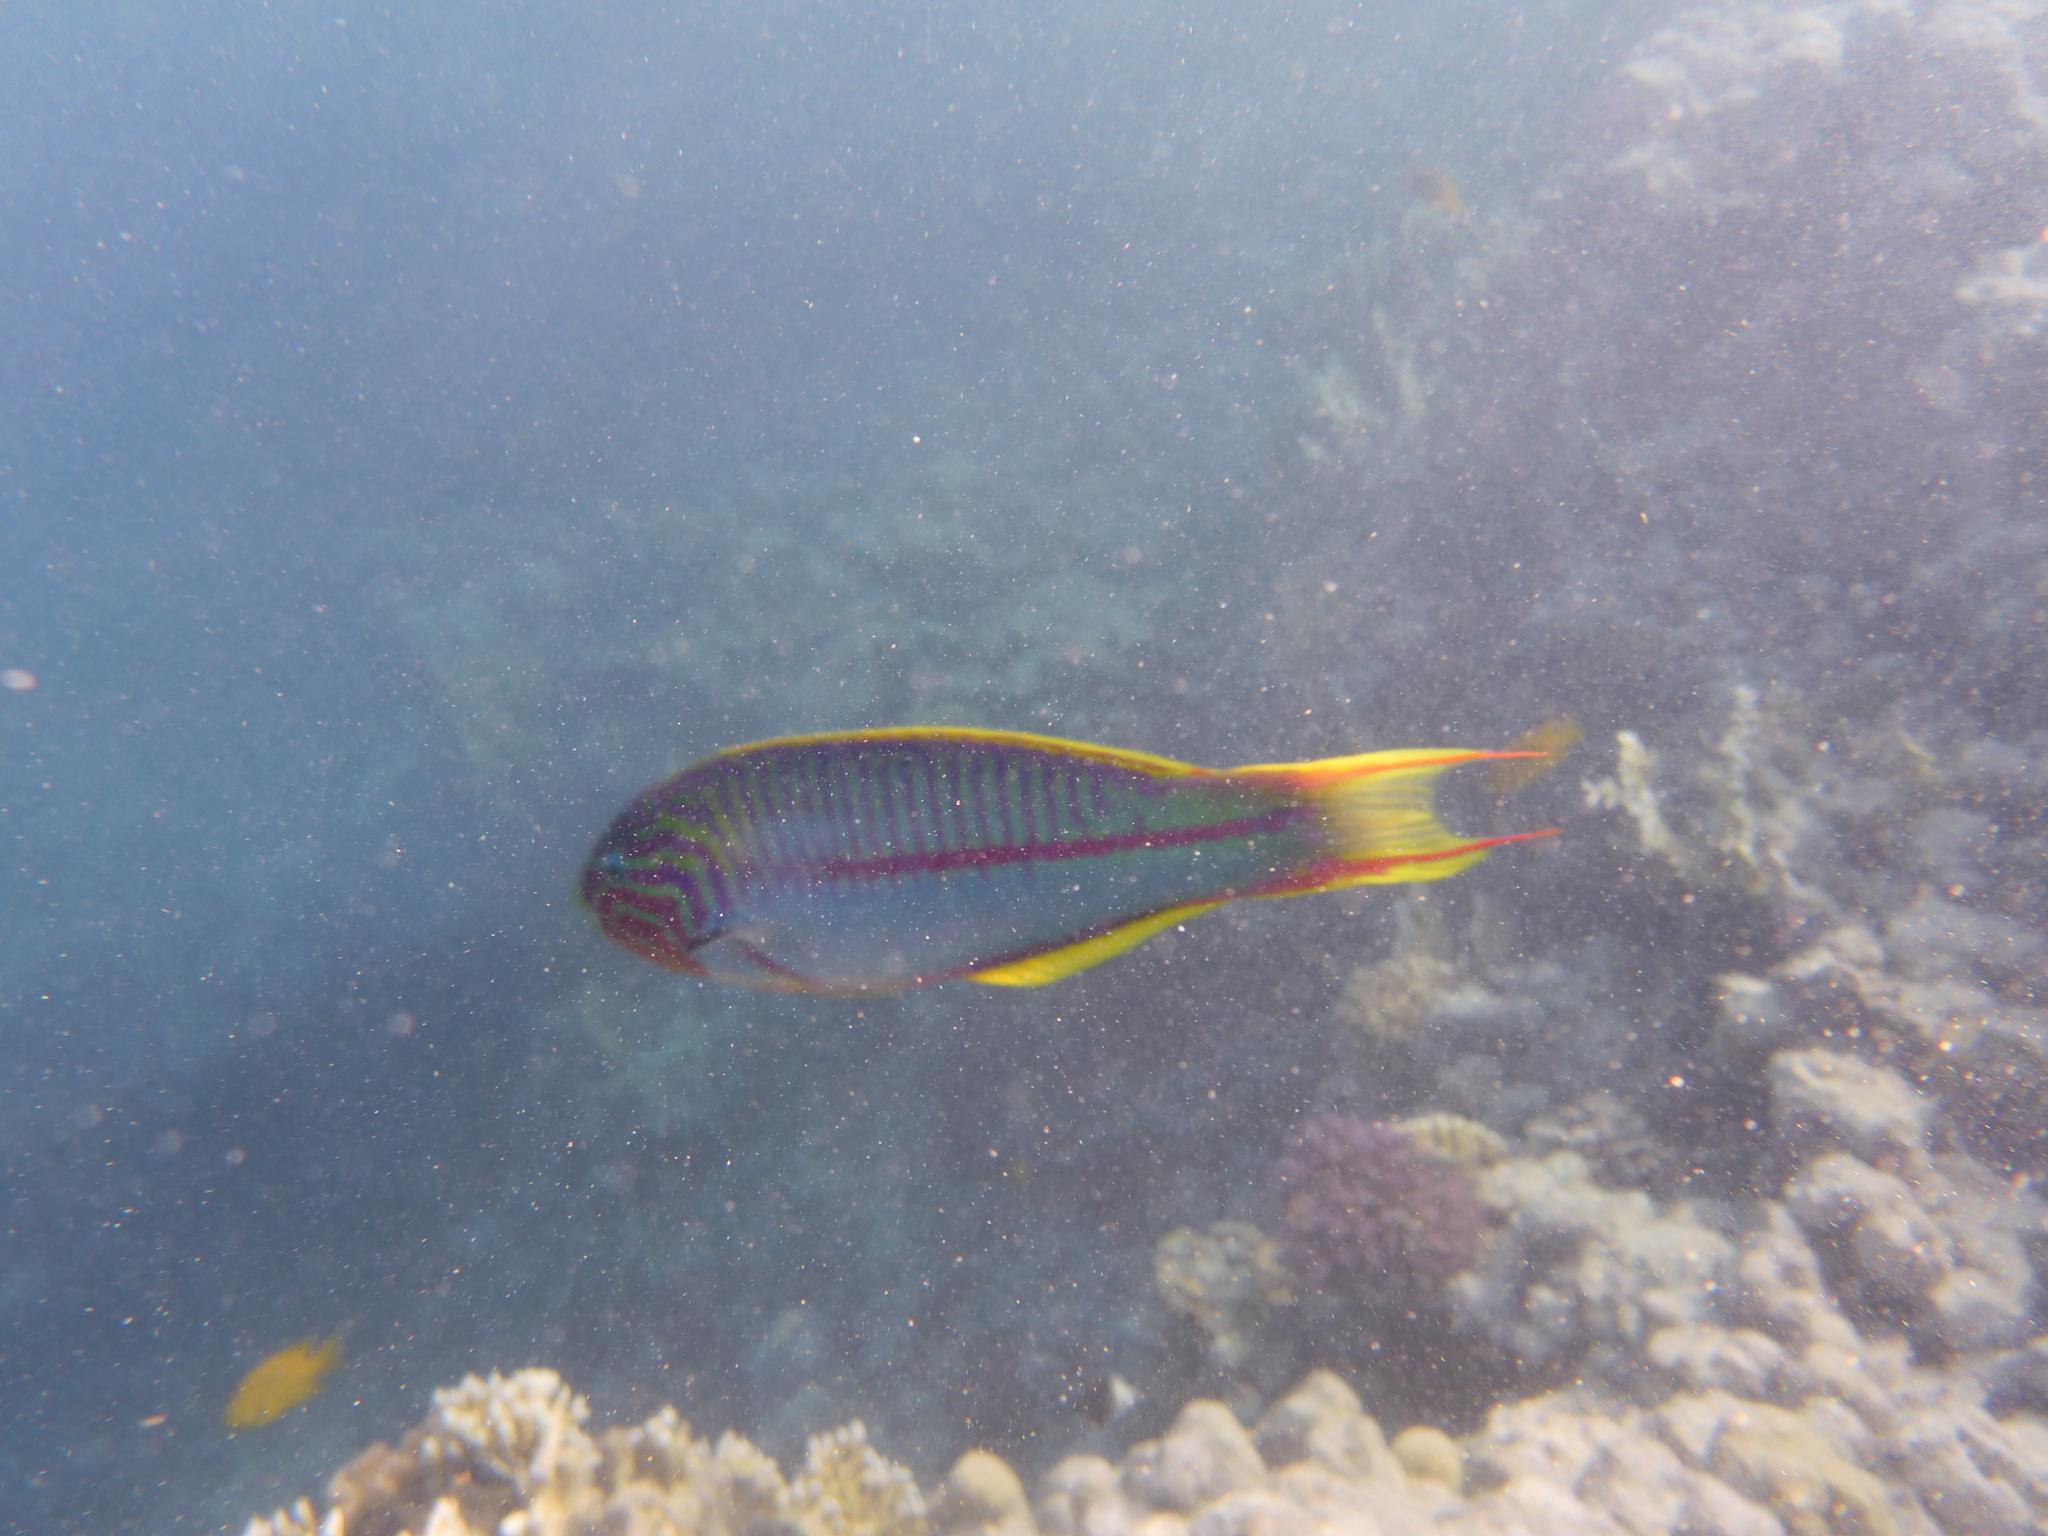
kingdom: Animalia
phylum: Chordata
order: Perciformes
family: Labridae
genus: Thalassoma
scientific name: Thalassoma rueppellii
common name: Klunzinger's wrasse
